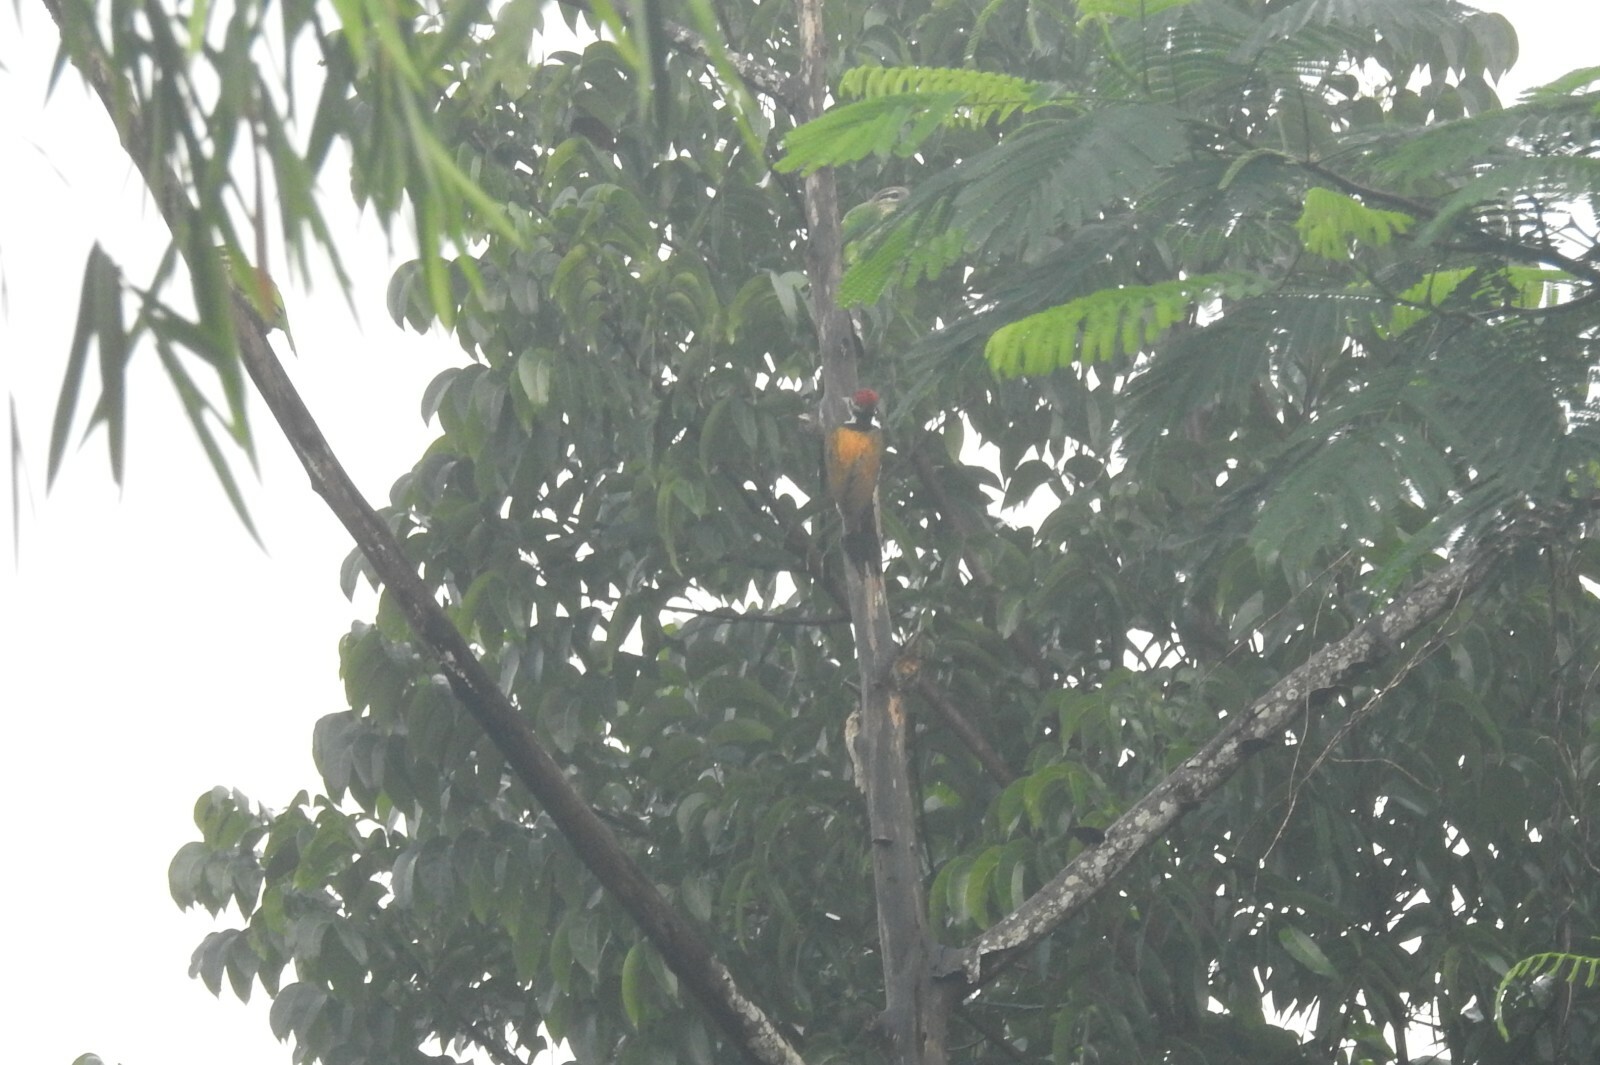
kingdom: Animalia
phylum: Chordata
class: Aves
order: Piciformes
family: Picidae
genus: Dinopium
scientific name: Dinopium benghalense
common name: Black-rumped flameback
